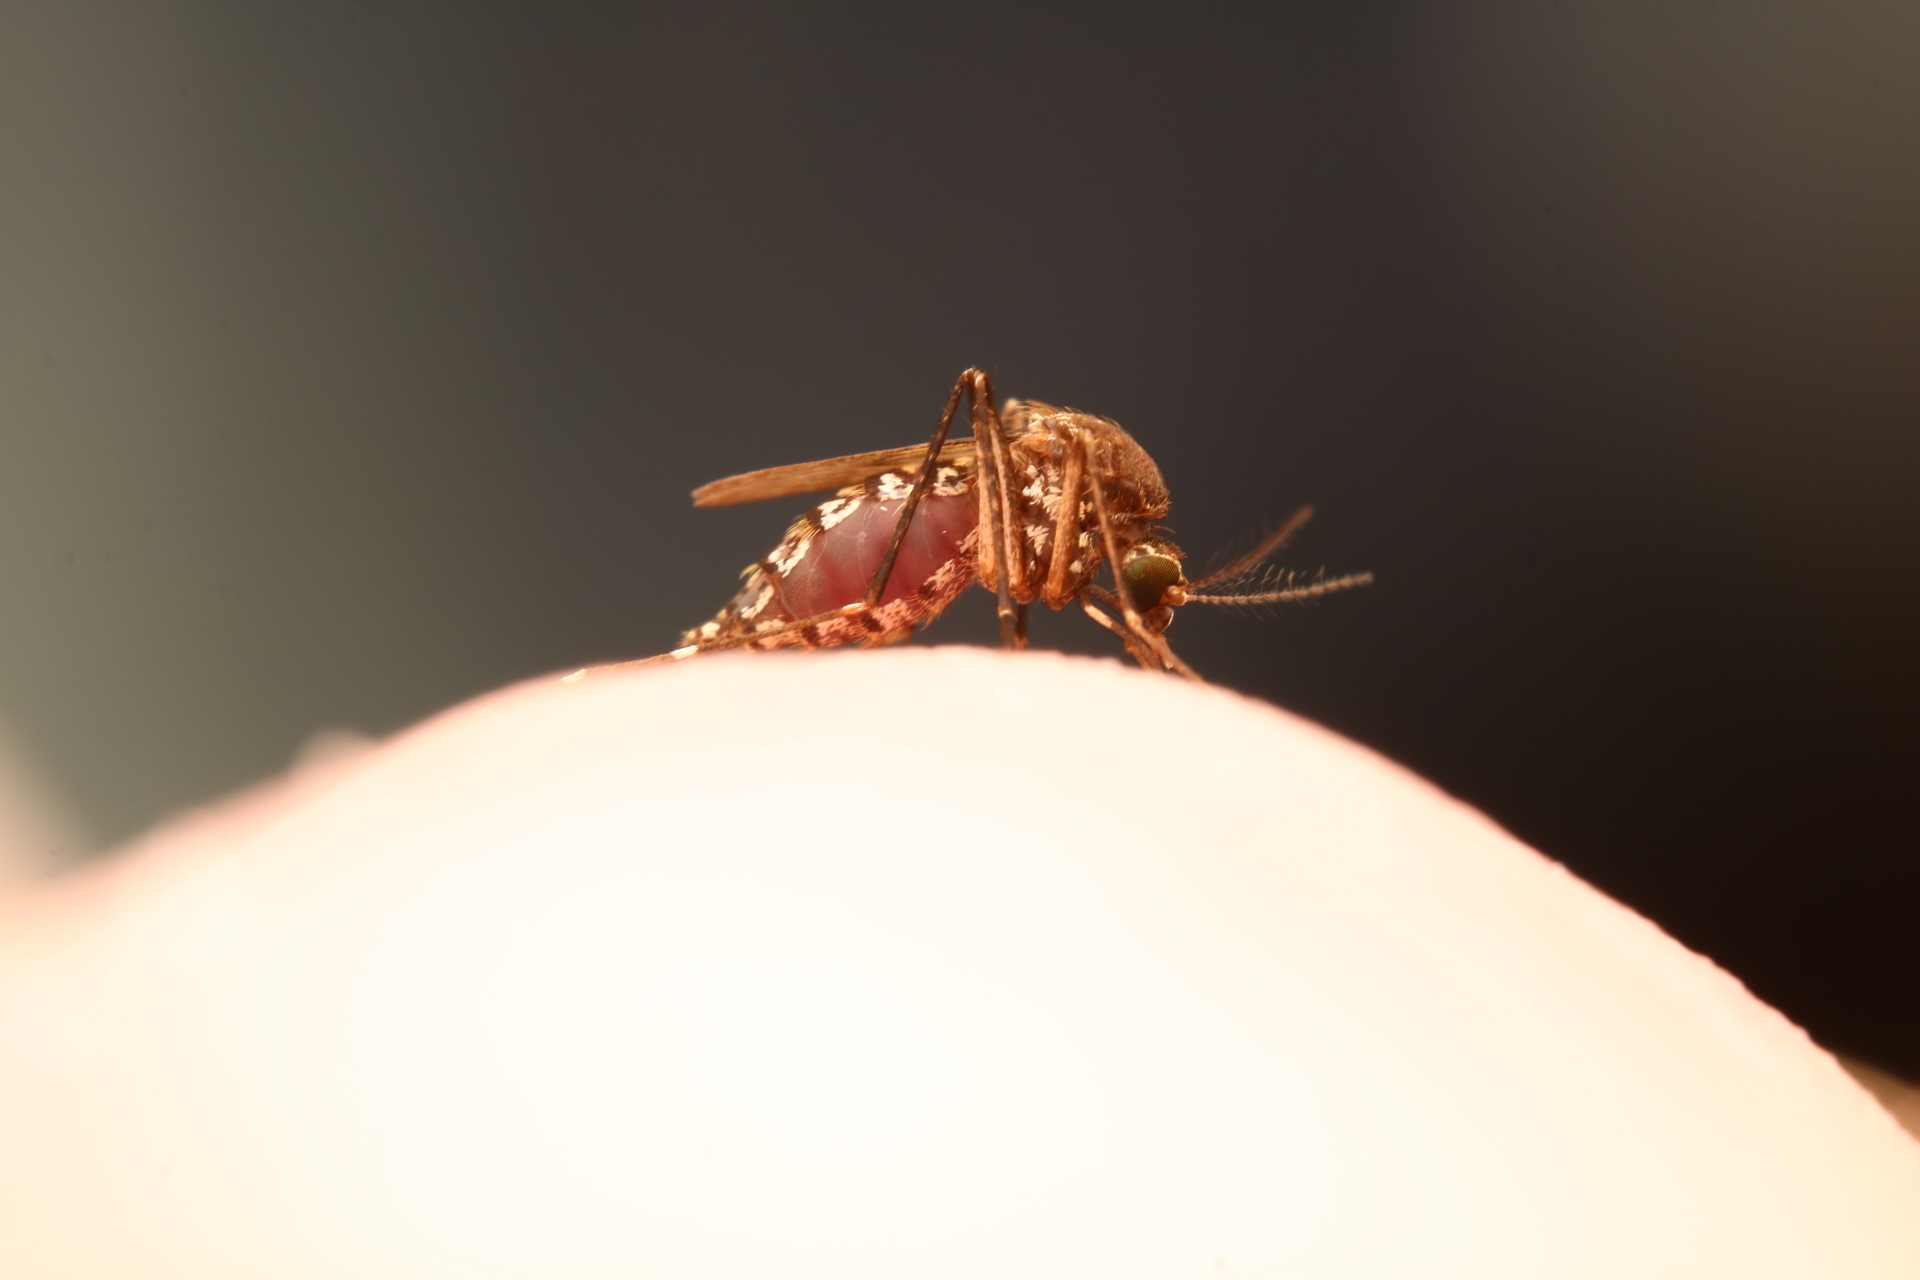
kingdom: Animalia
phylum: Arthropoda
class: Insecta
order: Diptera
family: Culicidae
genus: Aedes
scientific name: Aedes taeniorhynchus
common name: Black salt marsh mosquito
